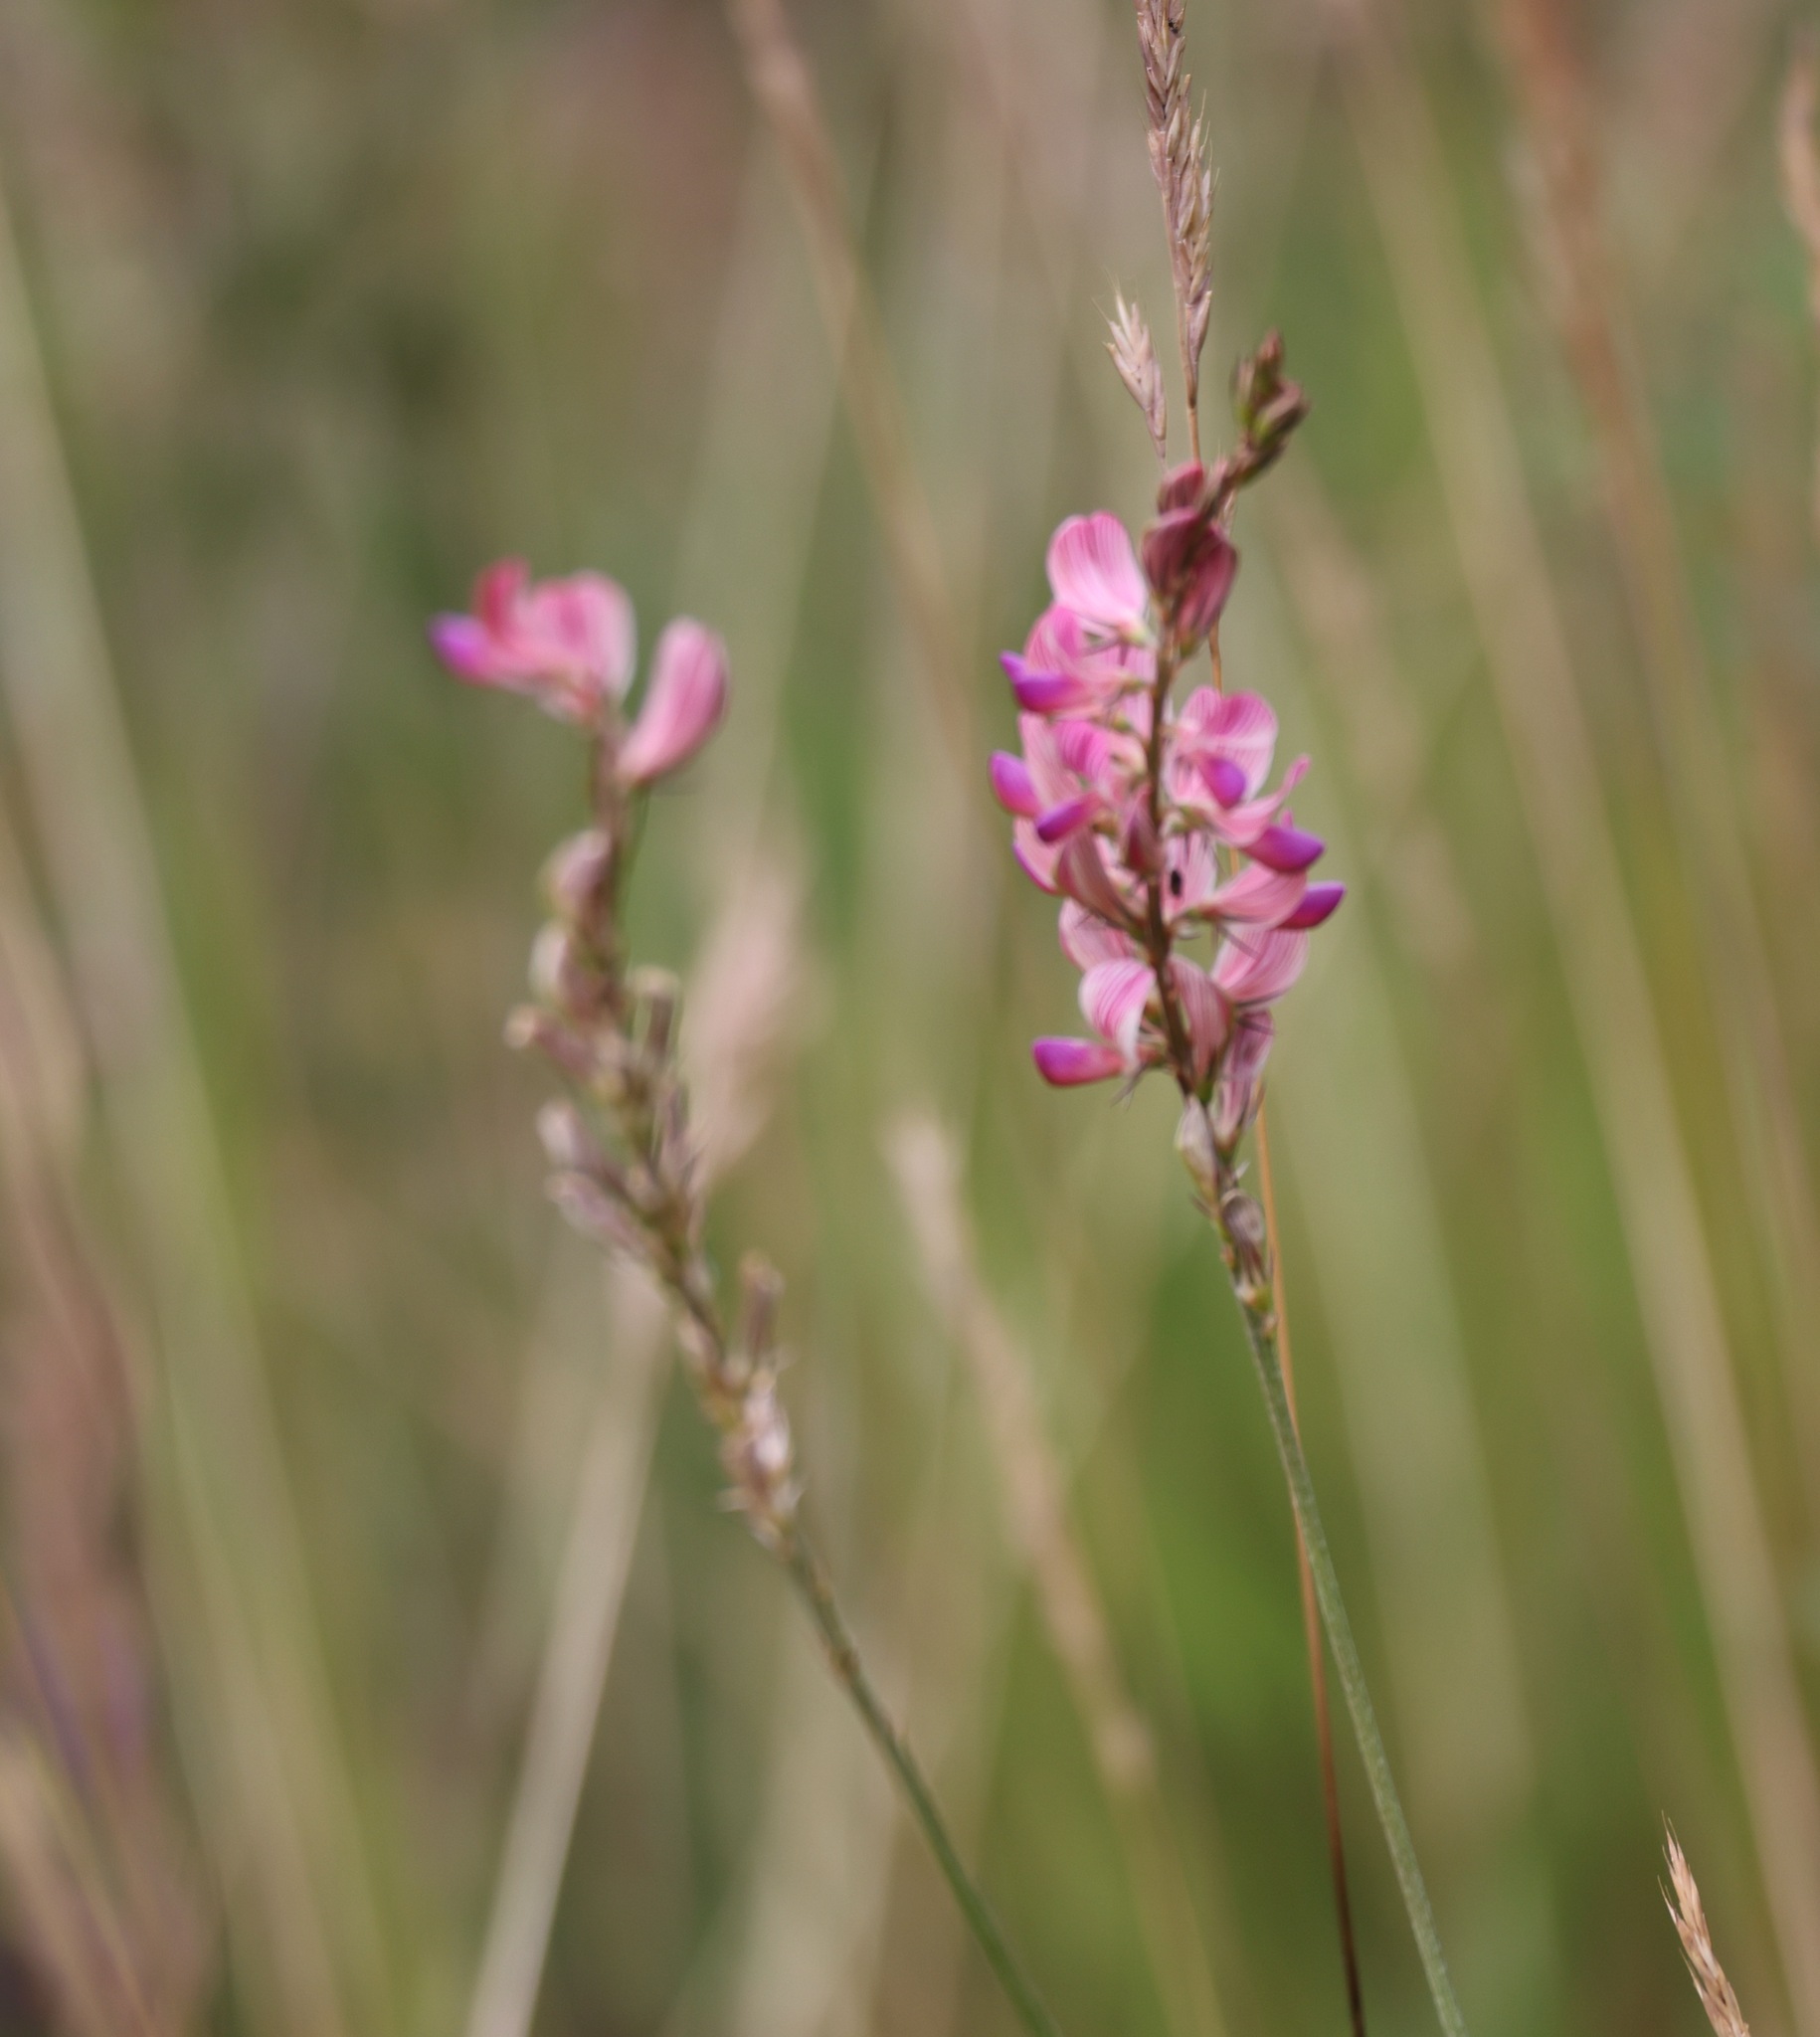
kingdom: Plantae
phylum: Tracheophyta
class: Magnoliopsida
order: Fabales
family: Fabaceae
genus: Onobrychis
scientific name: Onobrychis viciifolia
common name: Sainfoin
